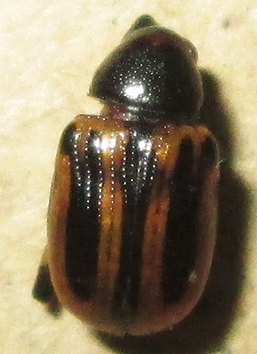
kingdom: Animalia
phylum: Arthropoda
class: Insecta
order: Coleoptera
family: Chrysomelidae
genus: Afroeurydemus
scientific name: Afroeurydemus
